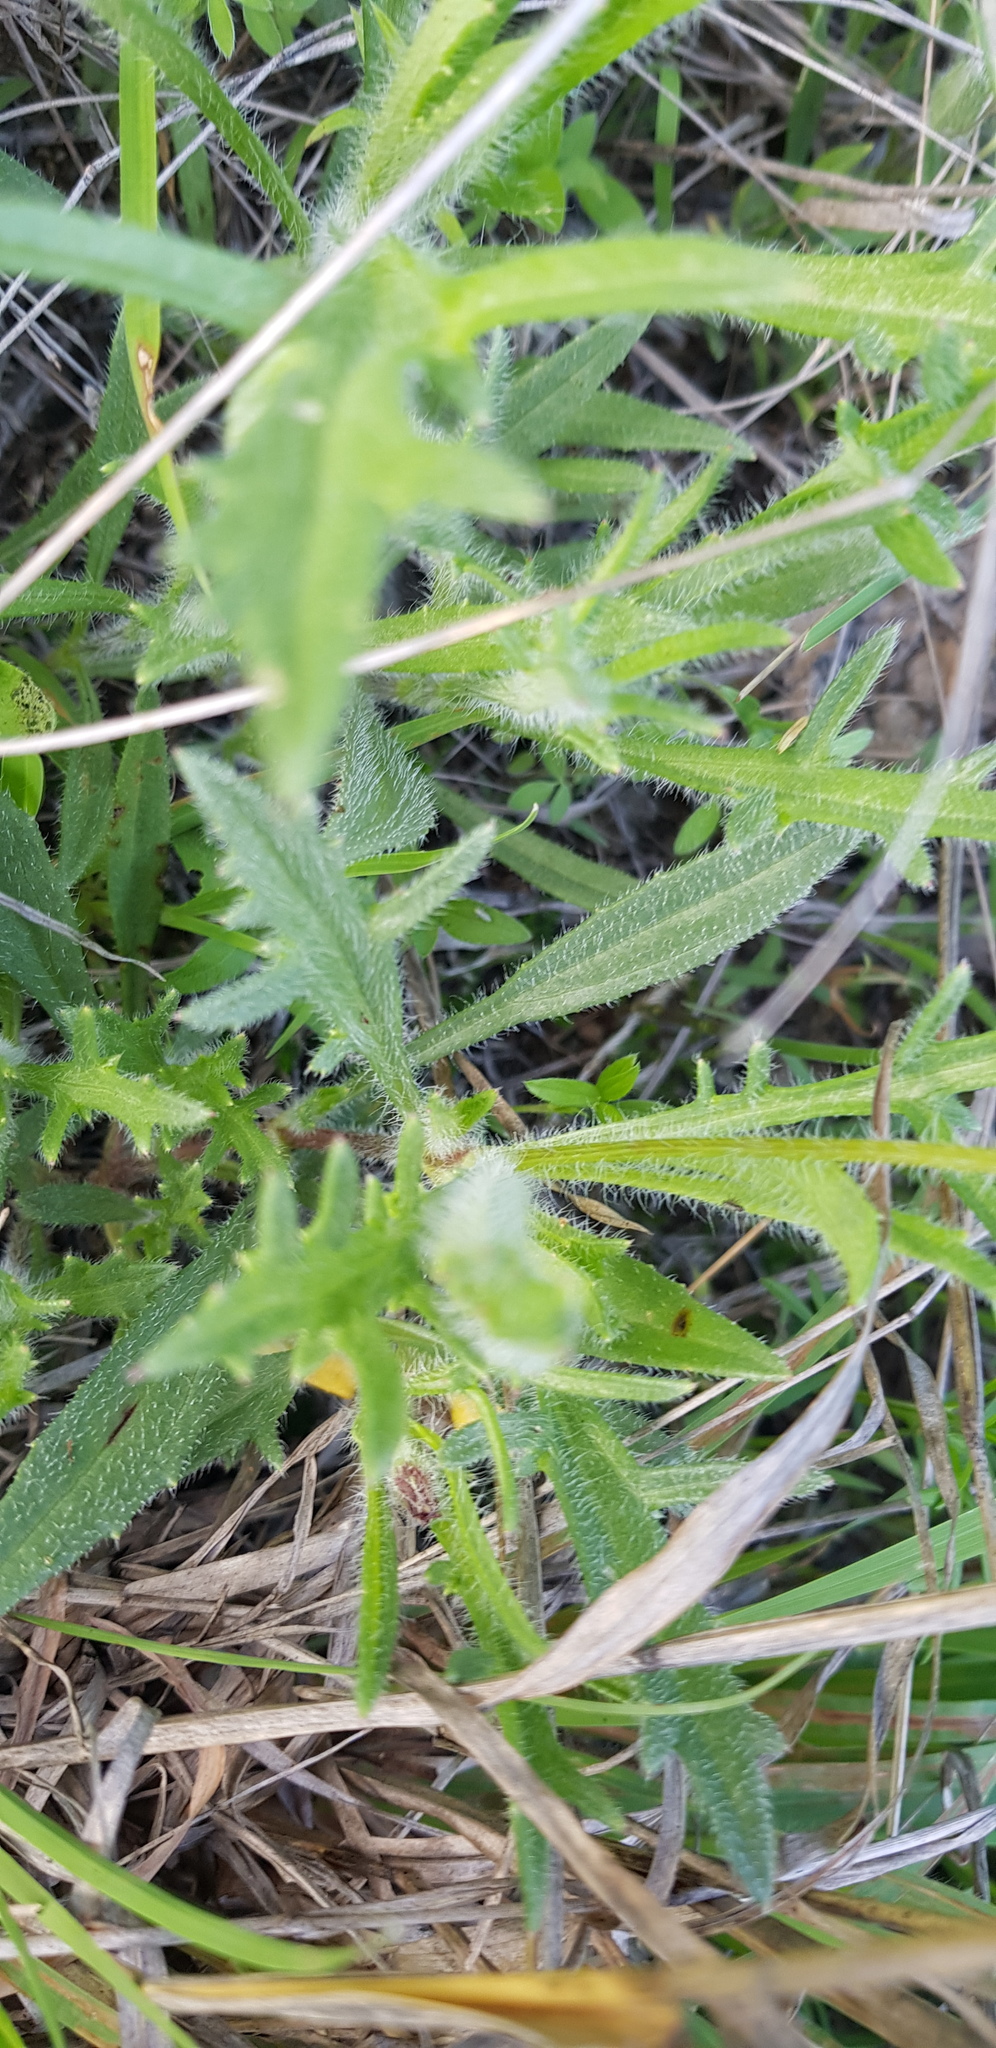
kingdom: Plantae
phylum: Tracheophyta
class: Magnoliopsida
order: Asterales
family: Asteraceae
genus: Tridax
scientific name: Tridax coronopifolia
